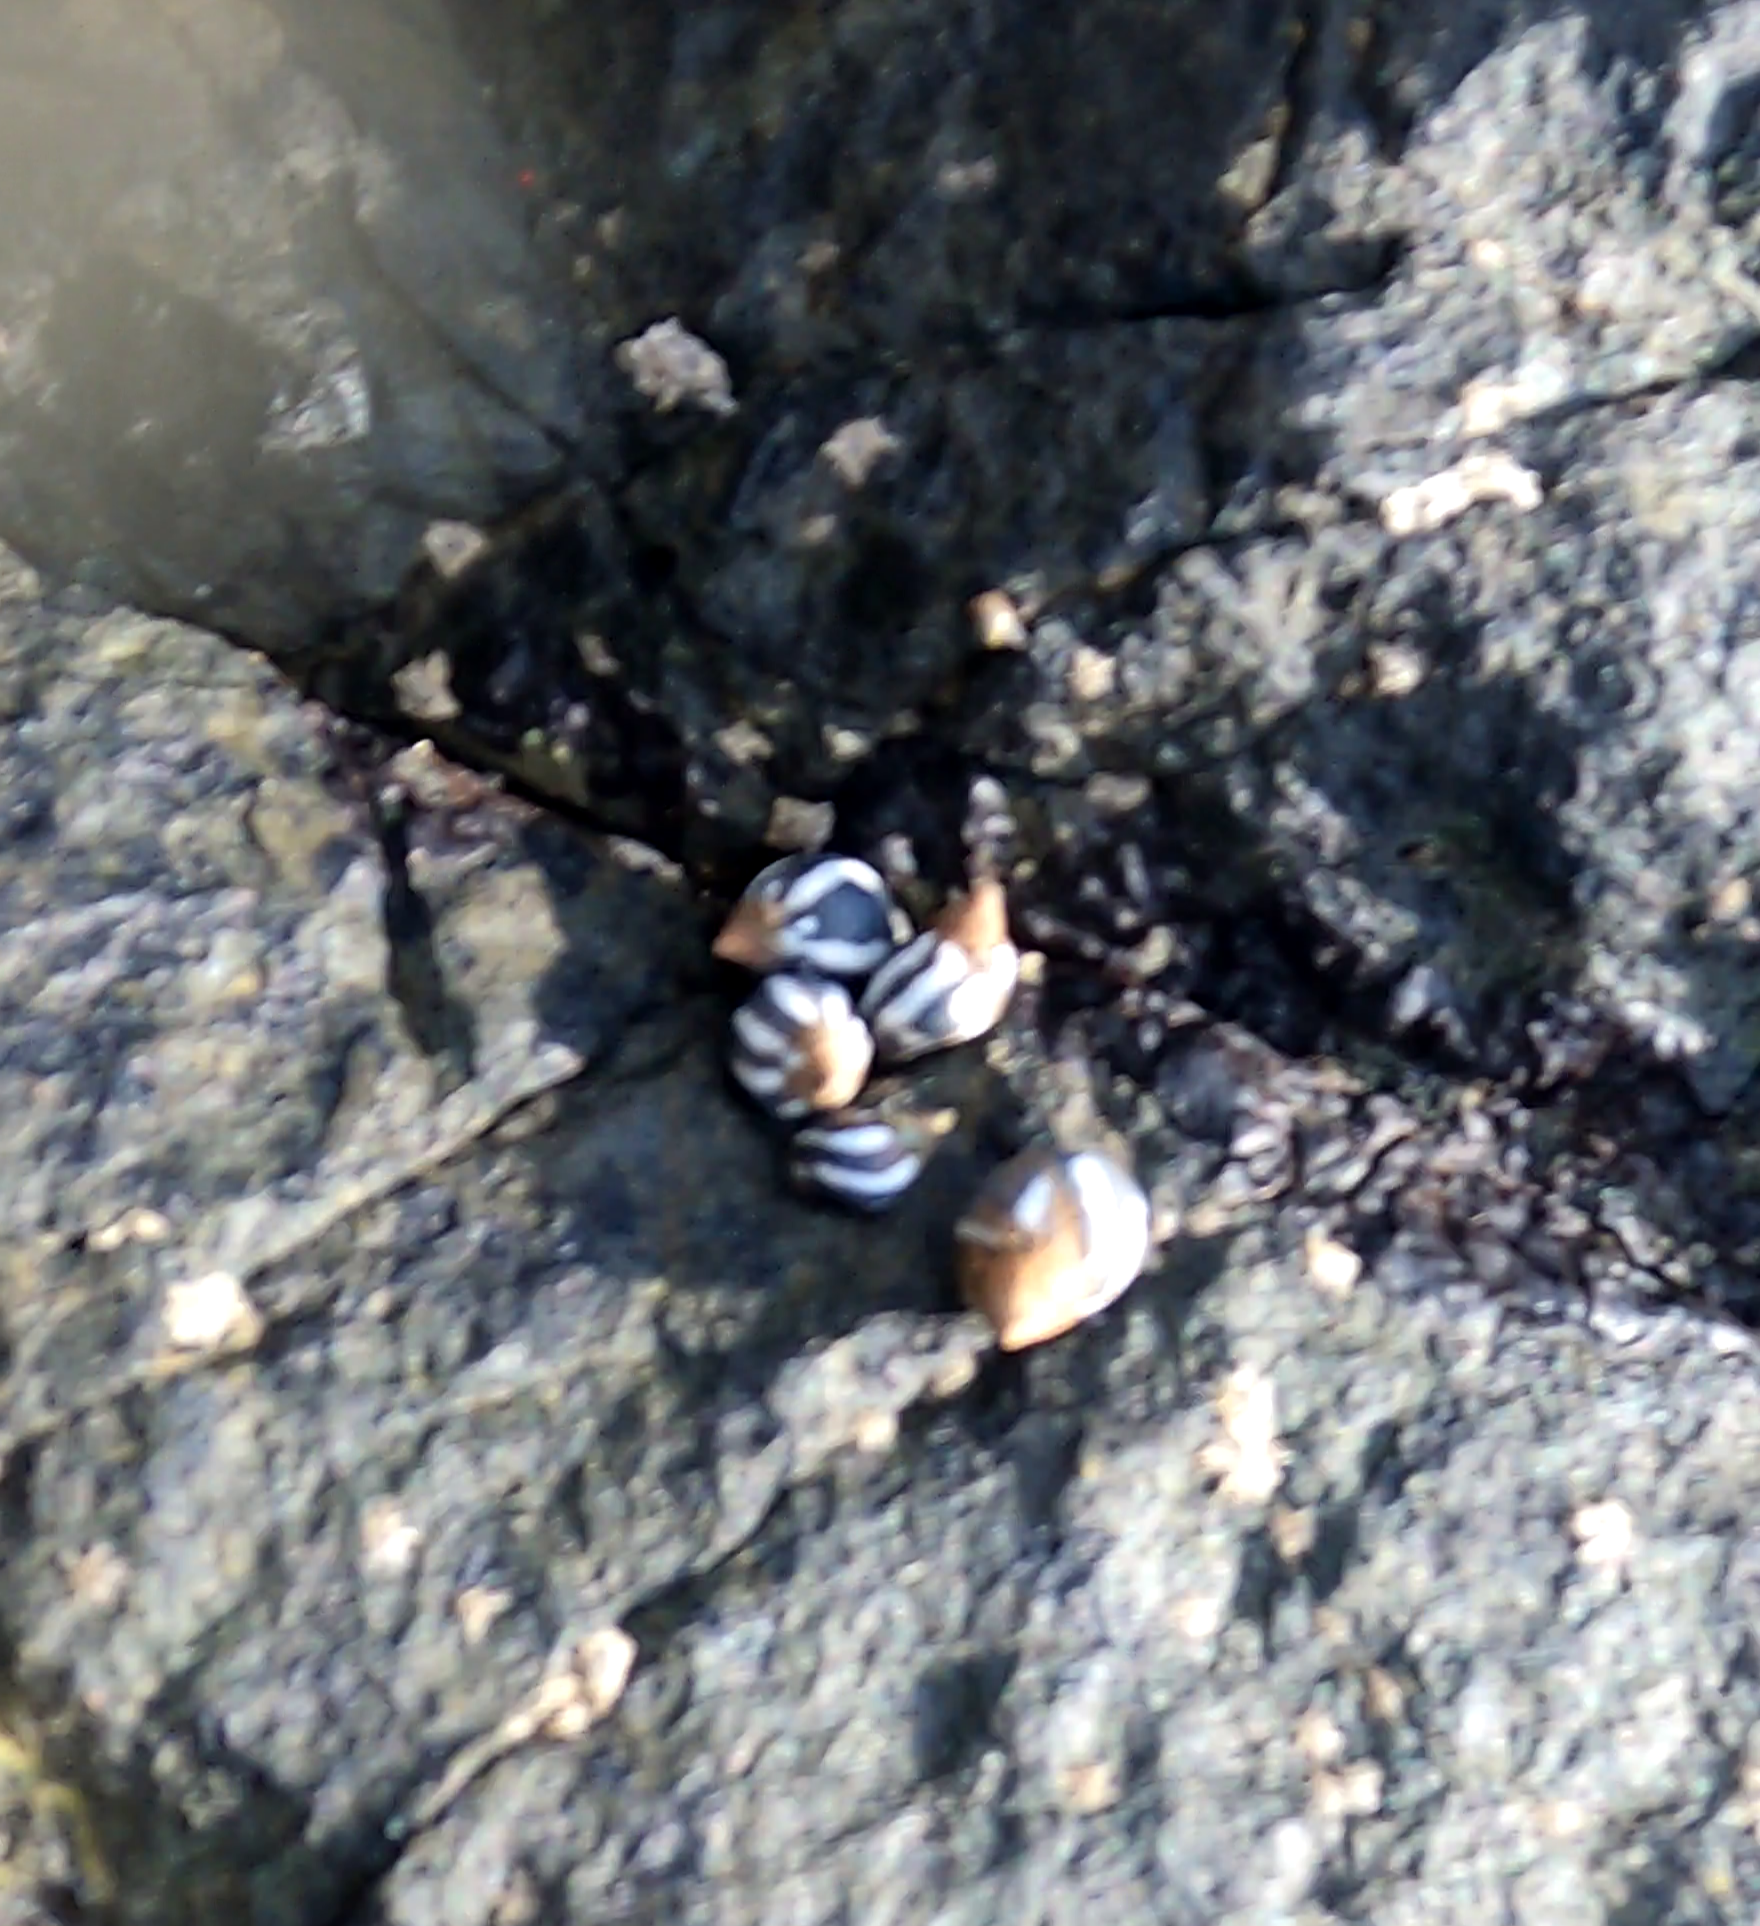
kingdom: Animalia
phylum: Mollusca
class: Gastropoda
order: Littorinimorpha
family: Littorinidae
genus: Echinolittorina
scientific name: Echinolittorina peruviana
